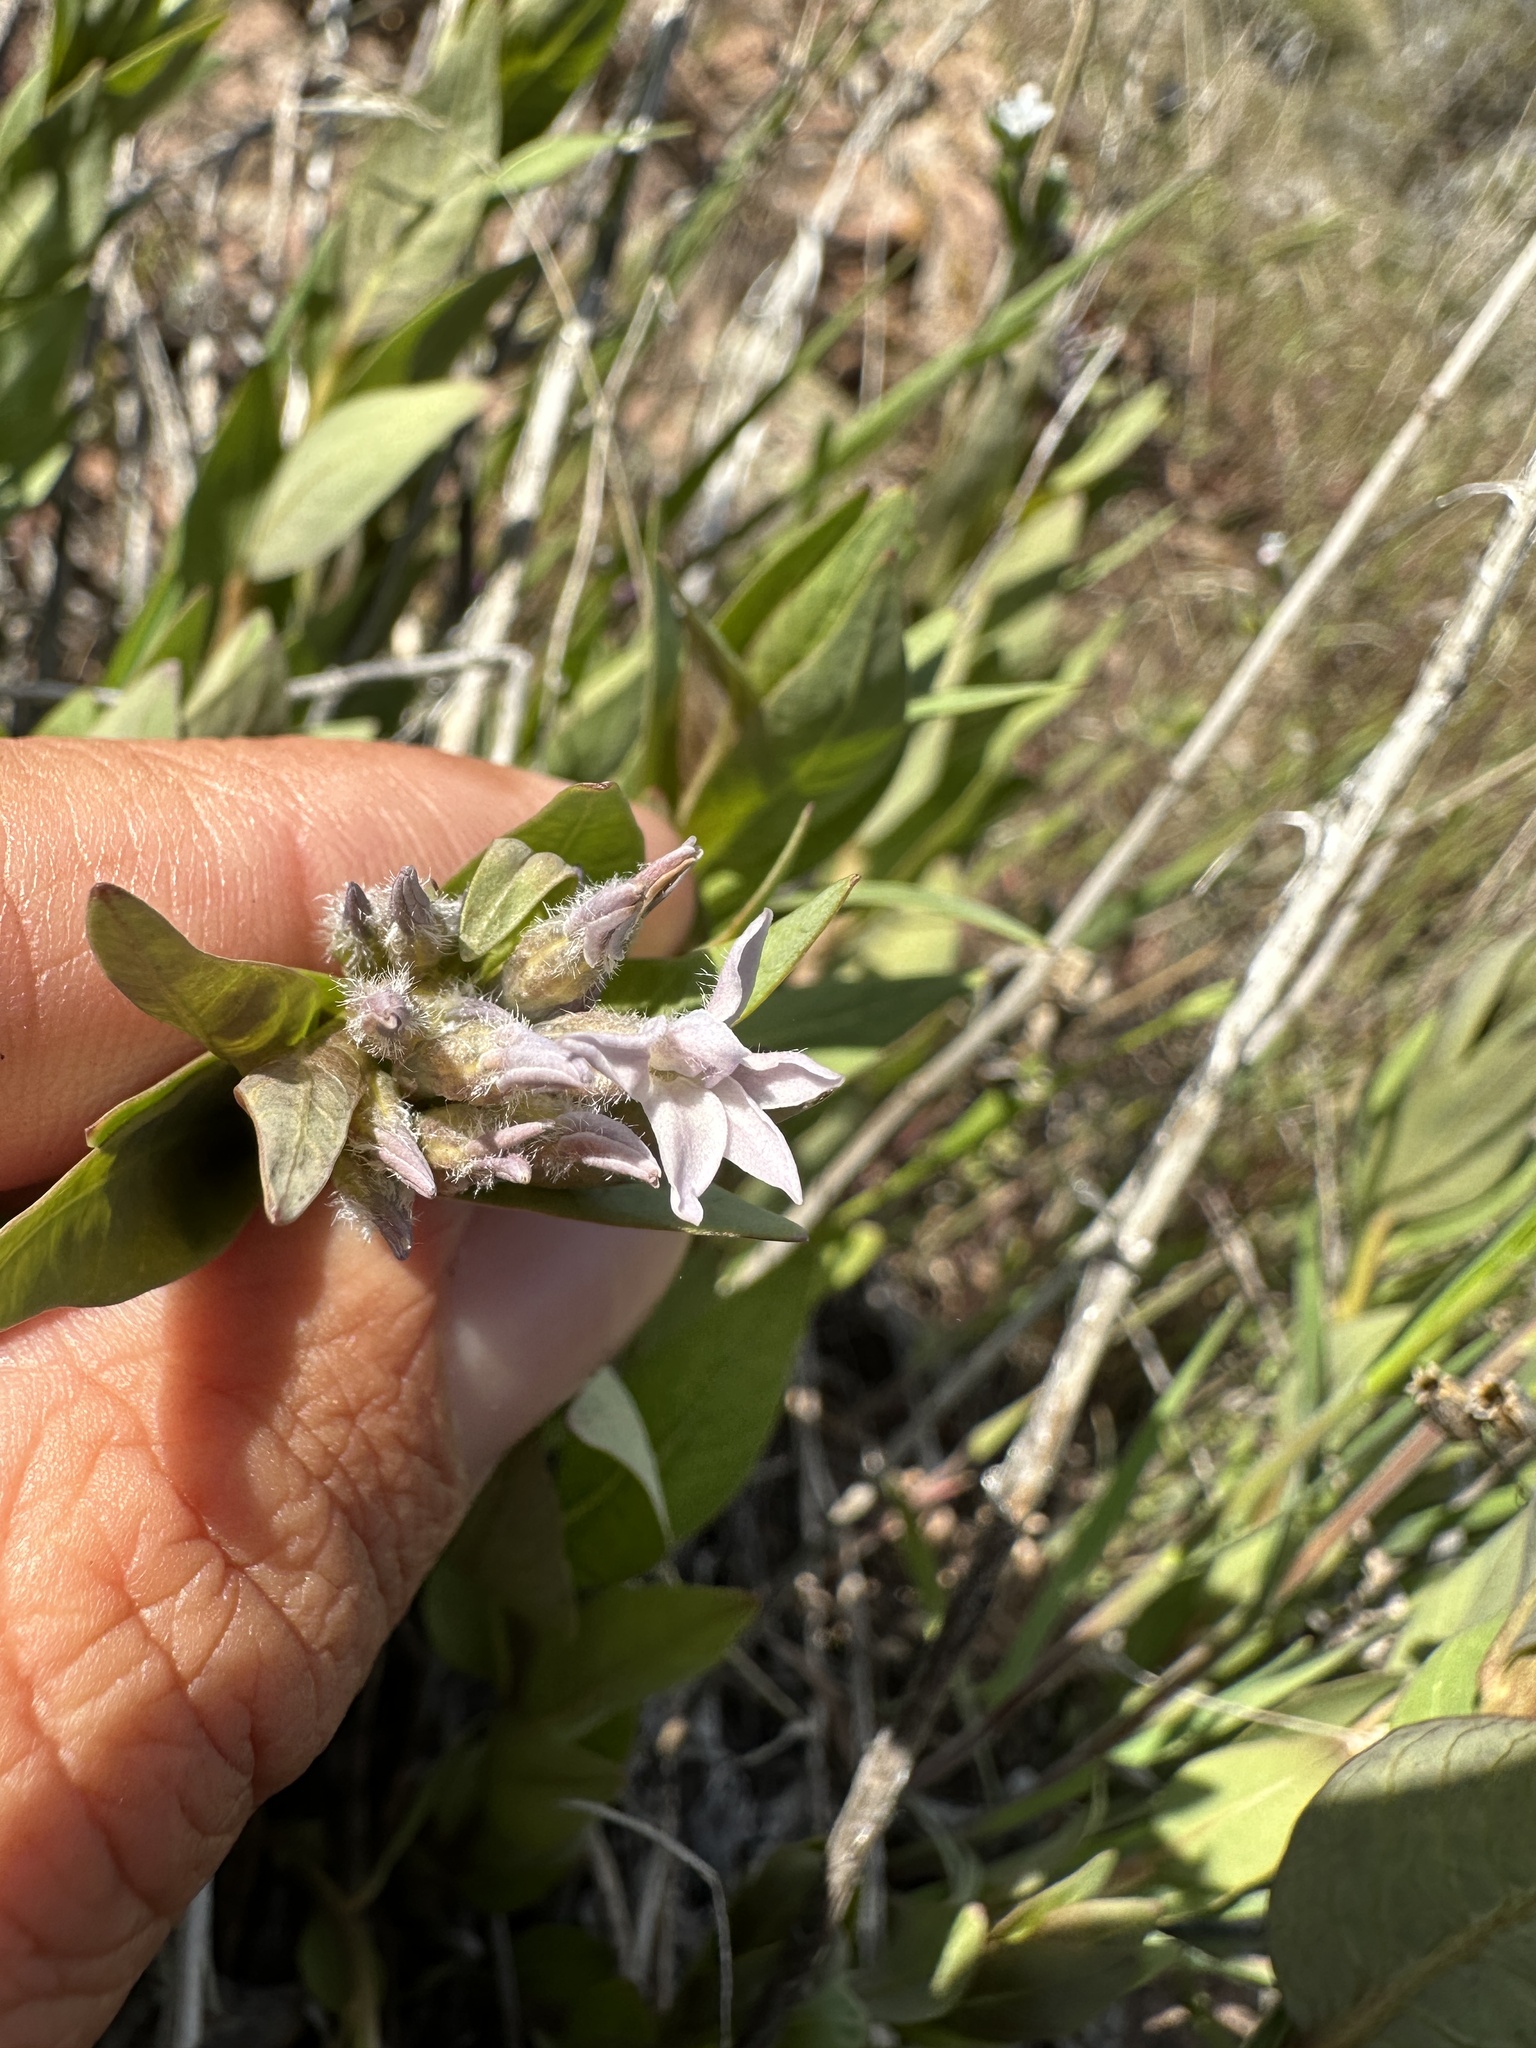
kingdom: Plantae
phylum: Tracheophyta
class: Magnoliopsida
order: Gentianales
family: Apocynaceae
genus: Amsonia
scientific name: Amsonia jonesii
